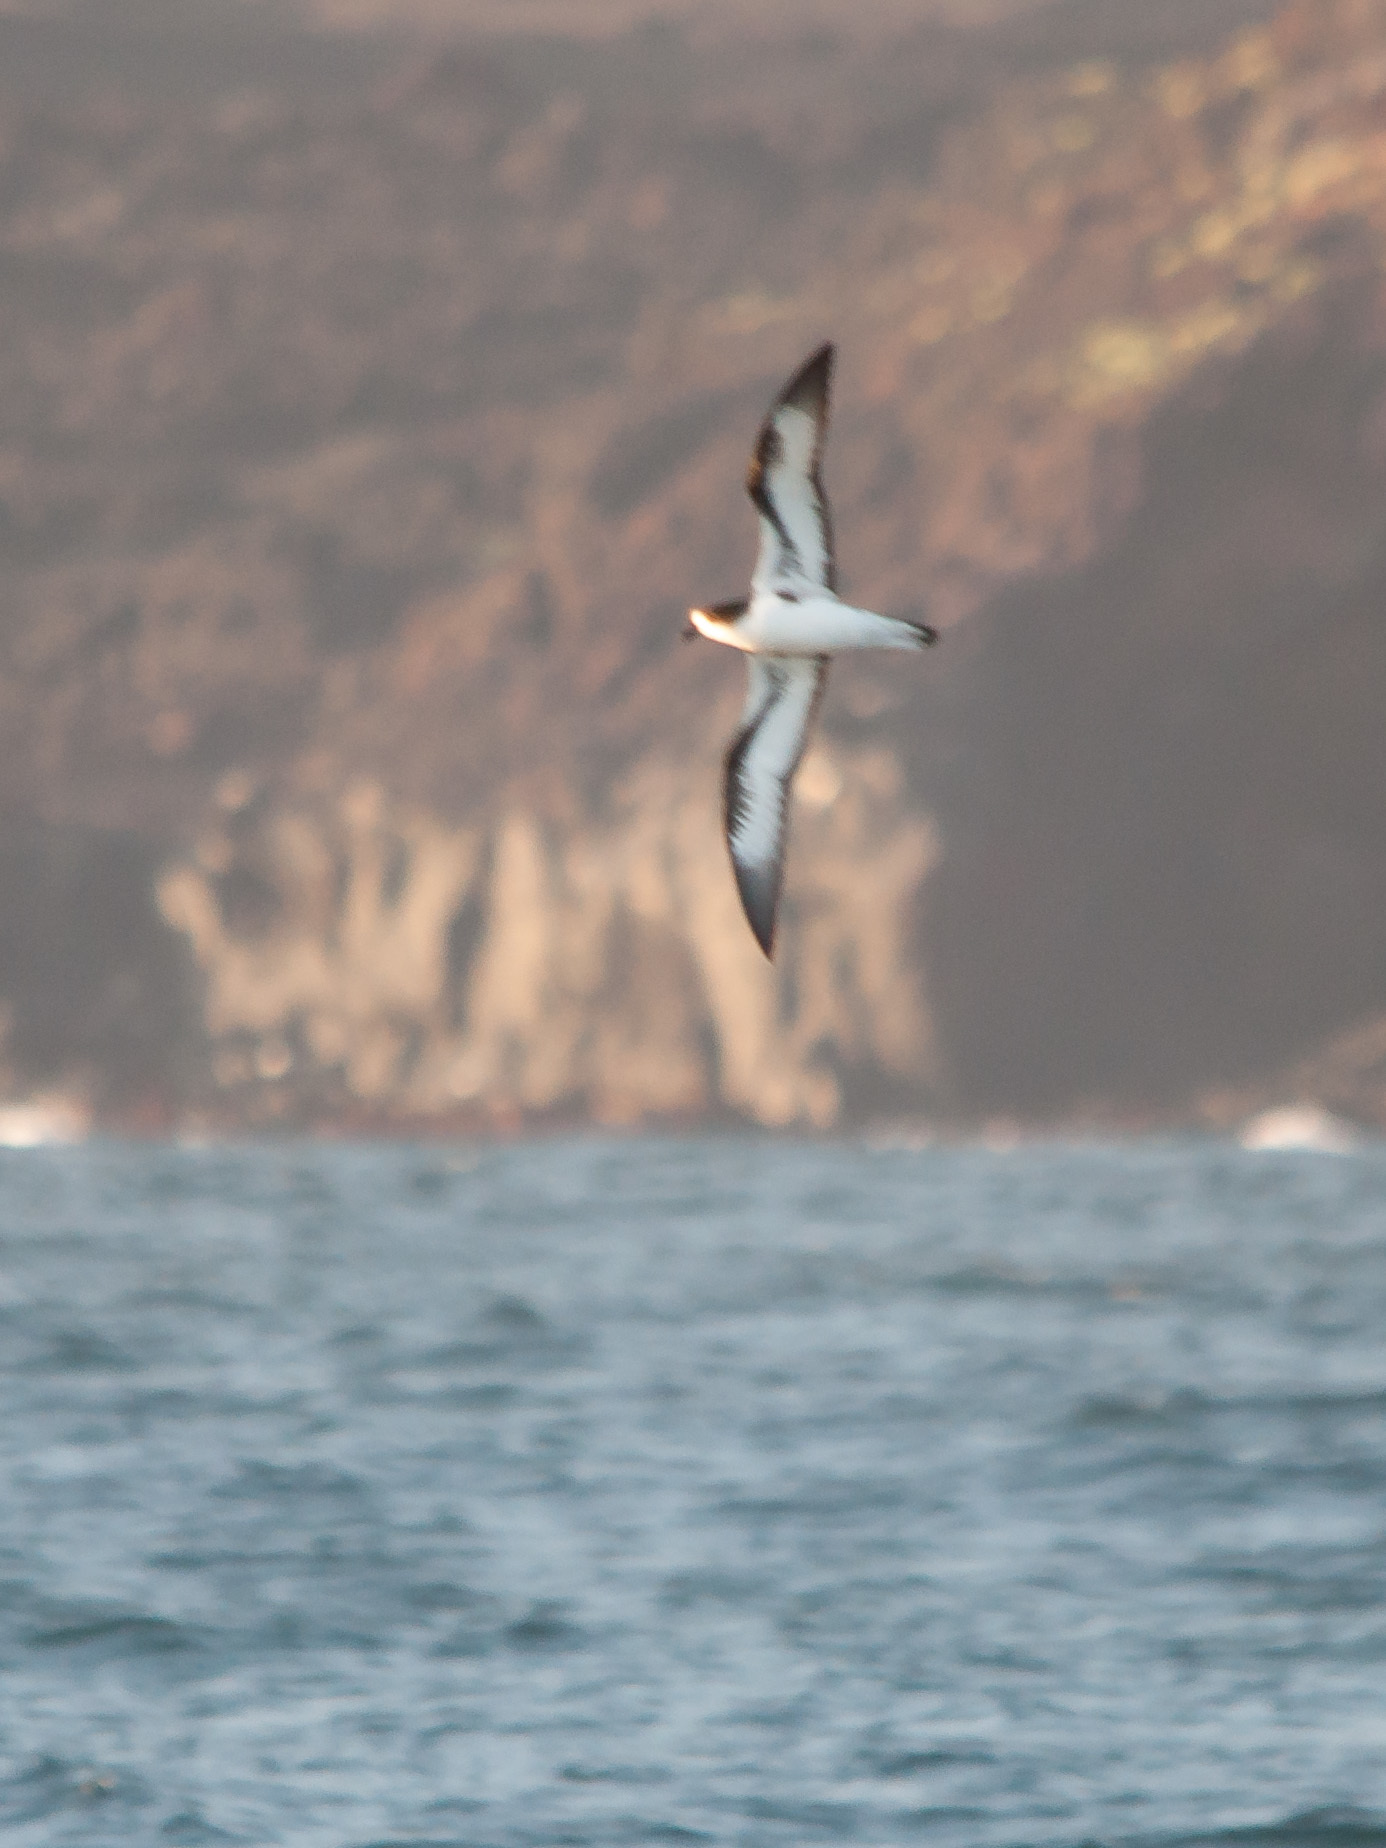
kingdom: Animalia
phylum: Chordata
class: Aves
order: Procellariiformes
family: Procellariidae
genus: Pterodroma
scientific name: Pterodroma phaeopygia
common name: Galapagos petrel
